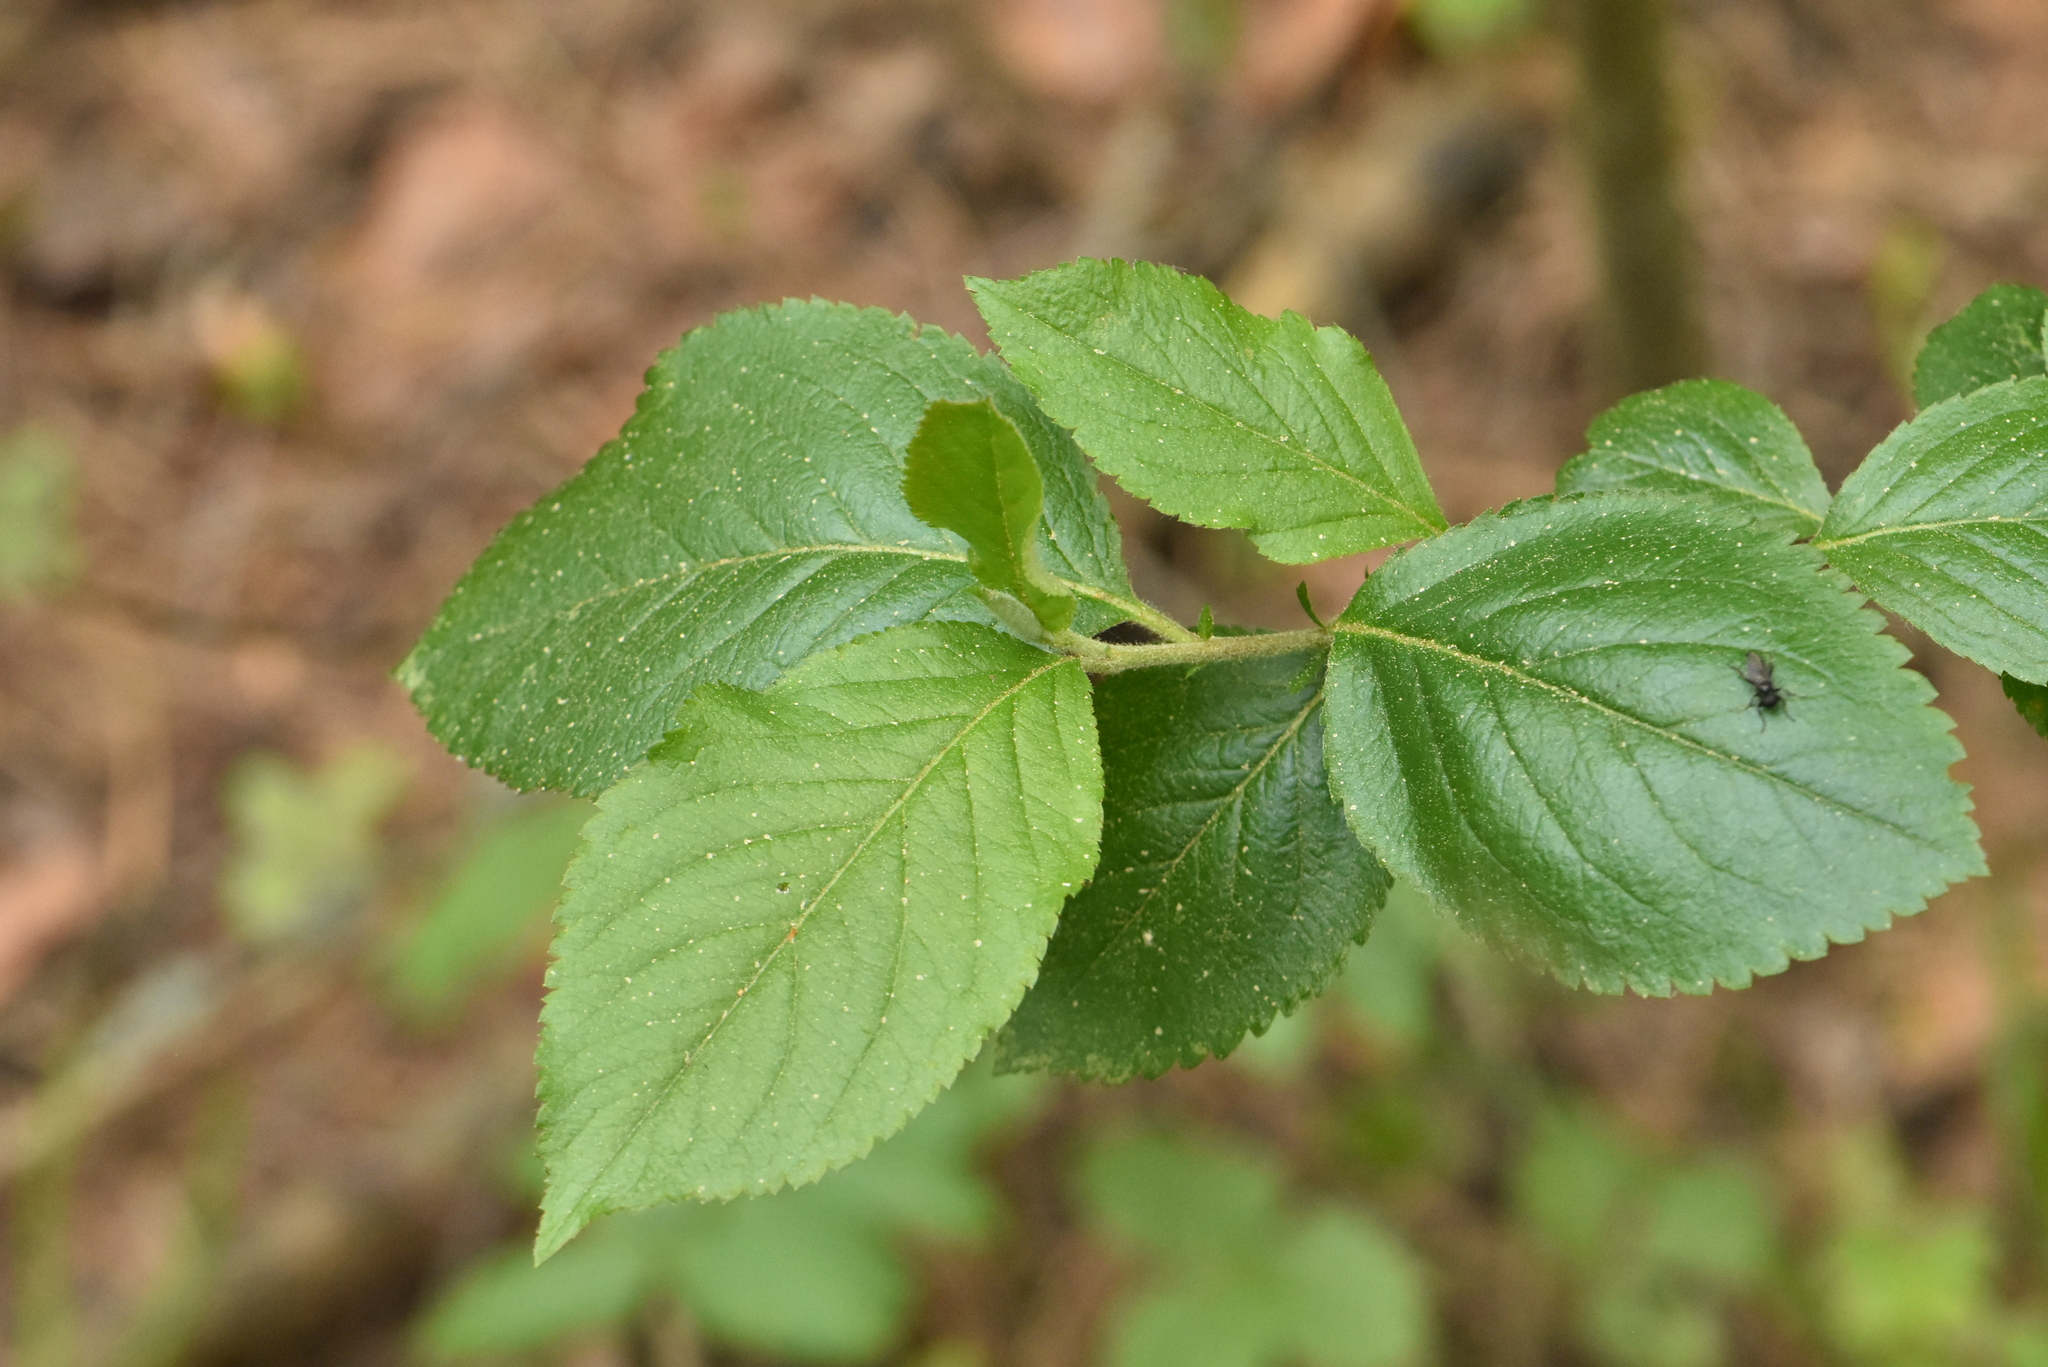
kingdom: Plantae
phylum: Tracheophyta
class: Magnoliopsida
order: Rosales
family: Rosaceae
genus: Sorbaronia
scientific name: Sorbaronia arsenii
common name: Arsène's mountain-ash
